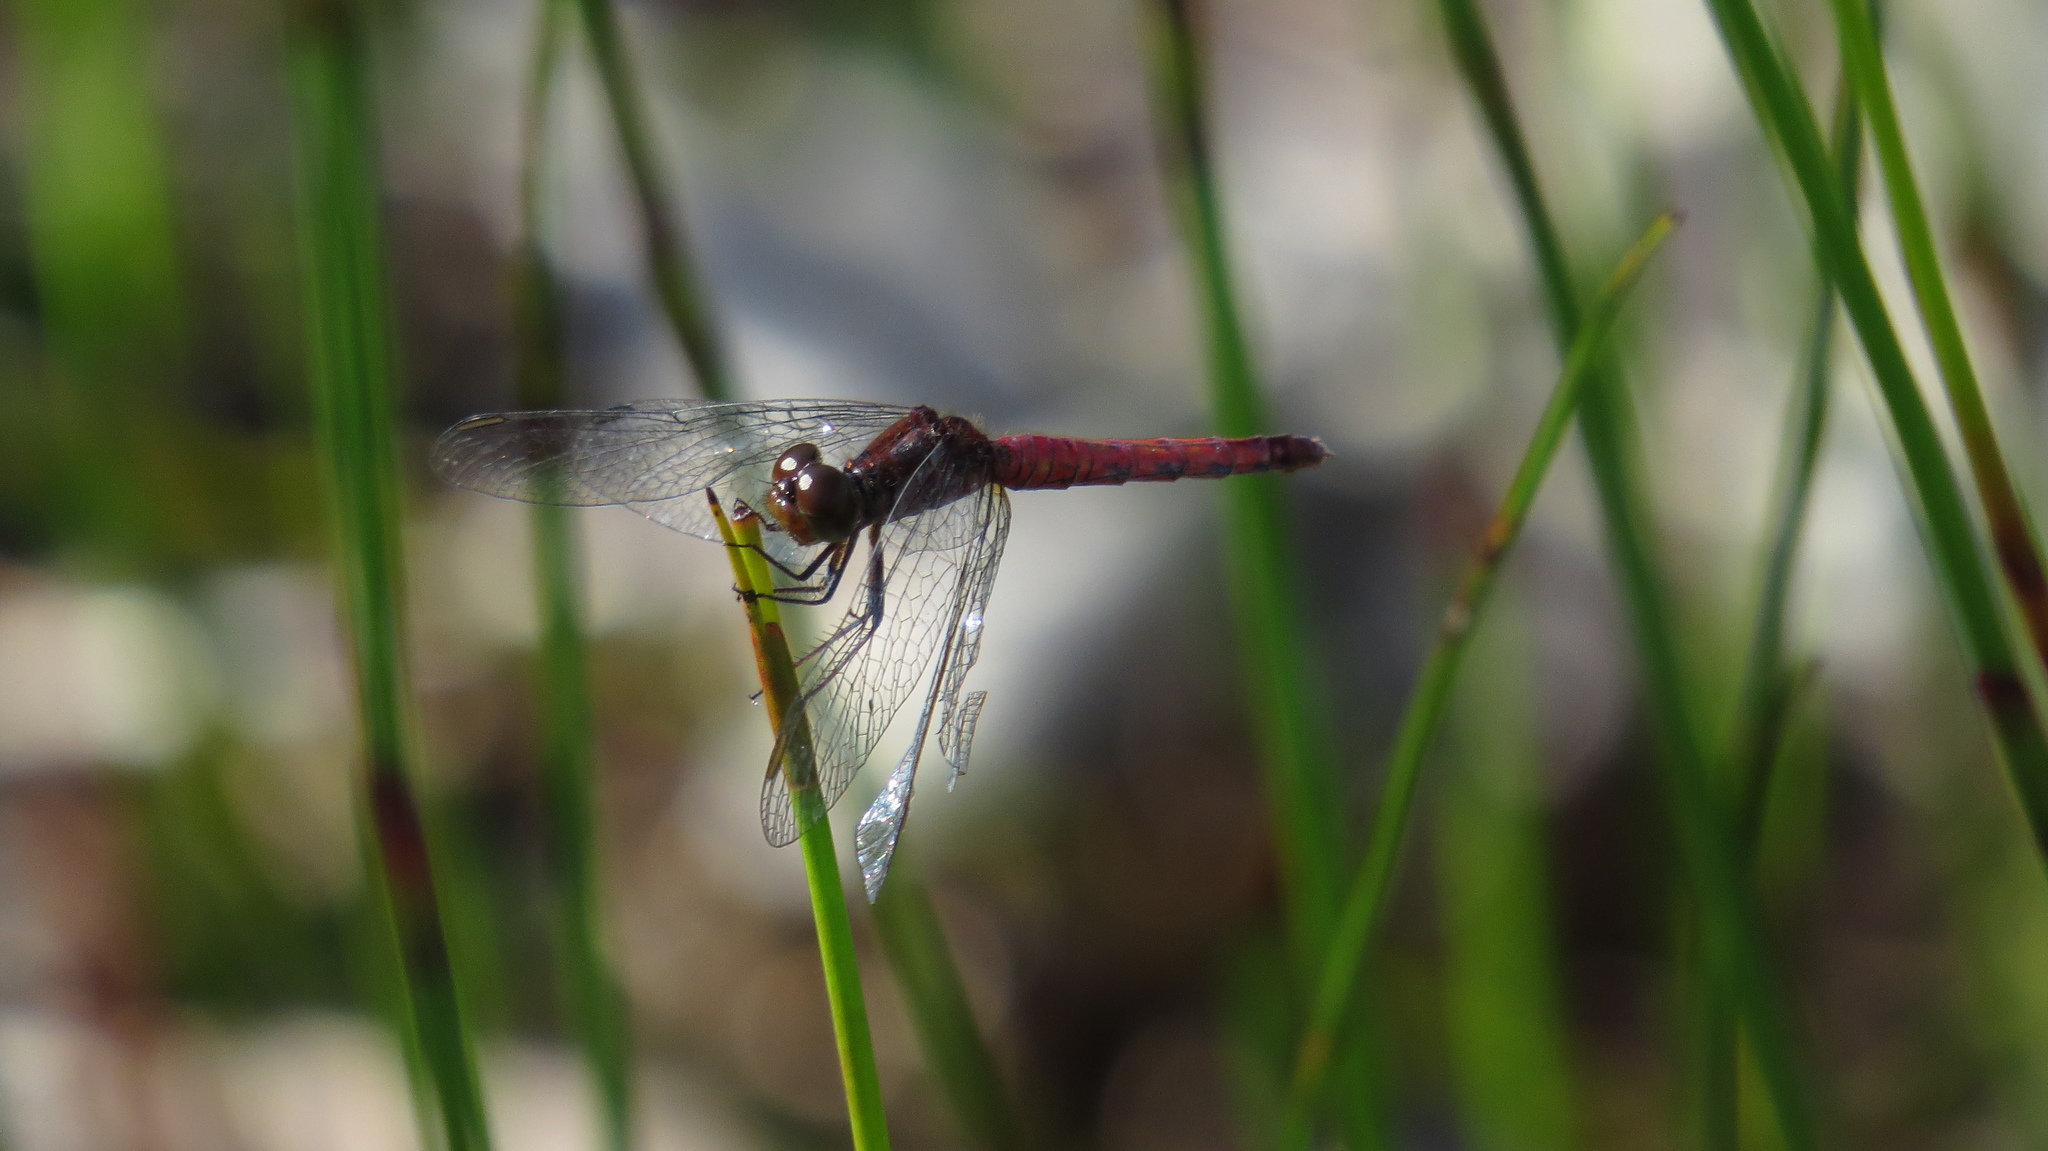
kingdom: Animalia
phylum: Arthropoda
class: Insecta
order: Odonata
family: Libellulidae
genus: Nannodiplax
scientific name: Nannodiplax rubra
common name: Pygmy percher
